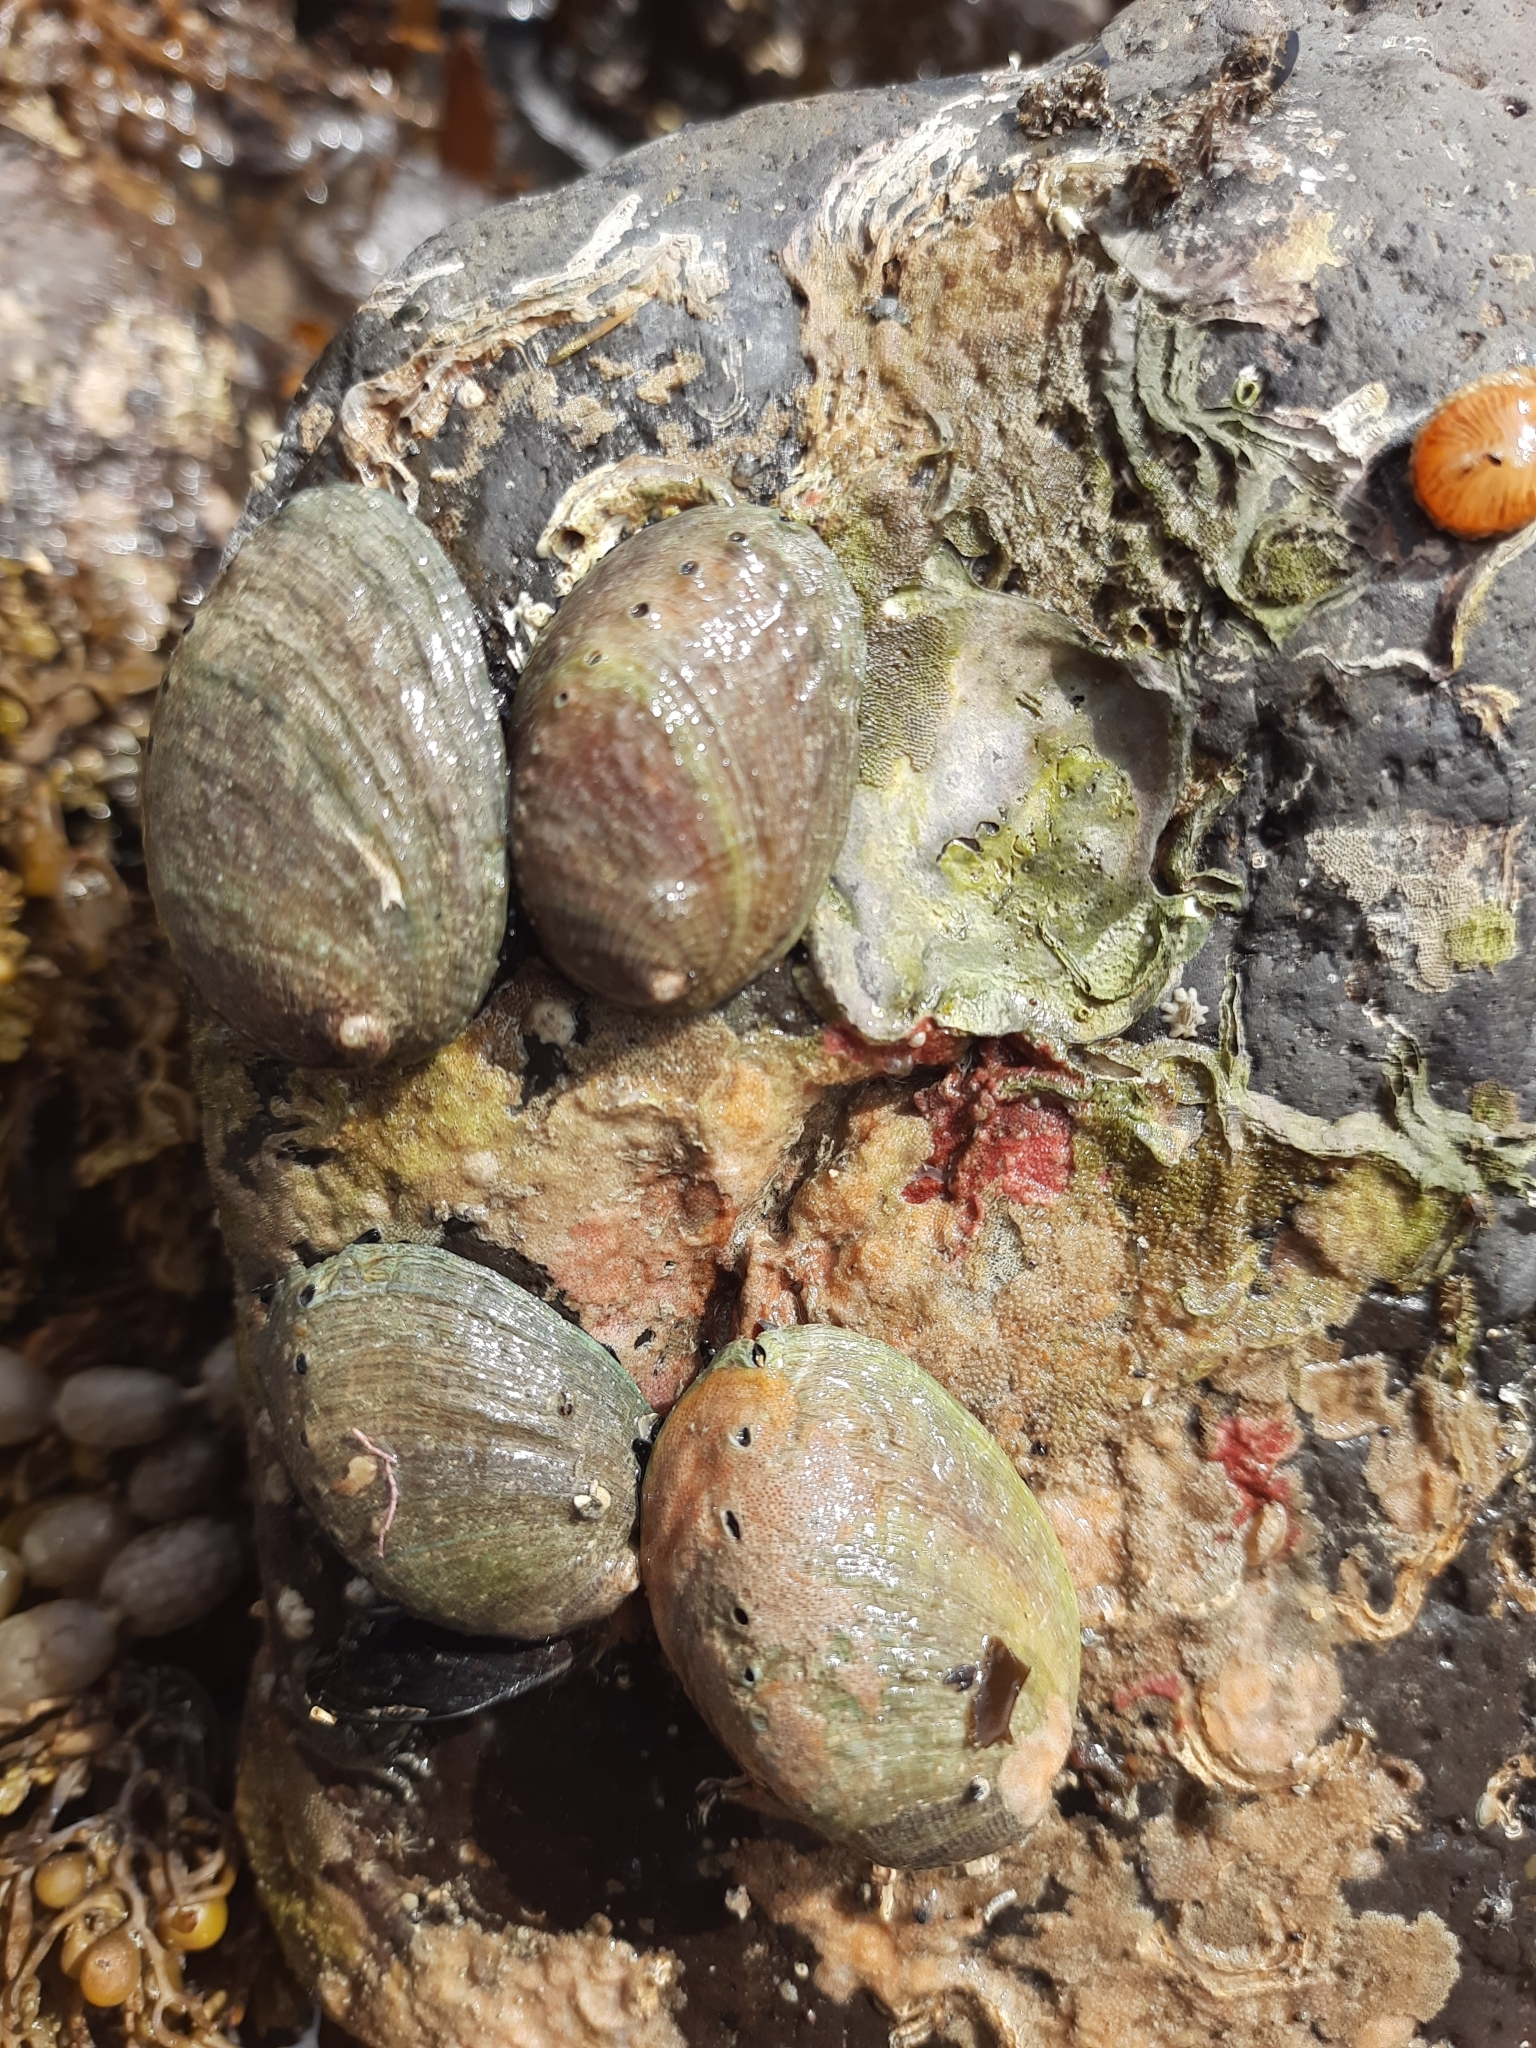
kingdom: Animalia
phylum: Mollusca
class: Gastropoda
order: Lepetellida
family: Haliotidae
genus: Haliotis
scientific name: Haliotis iris
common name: Abalone
